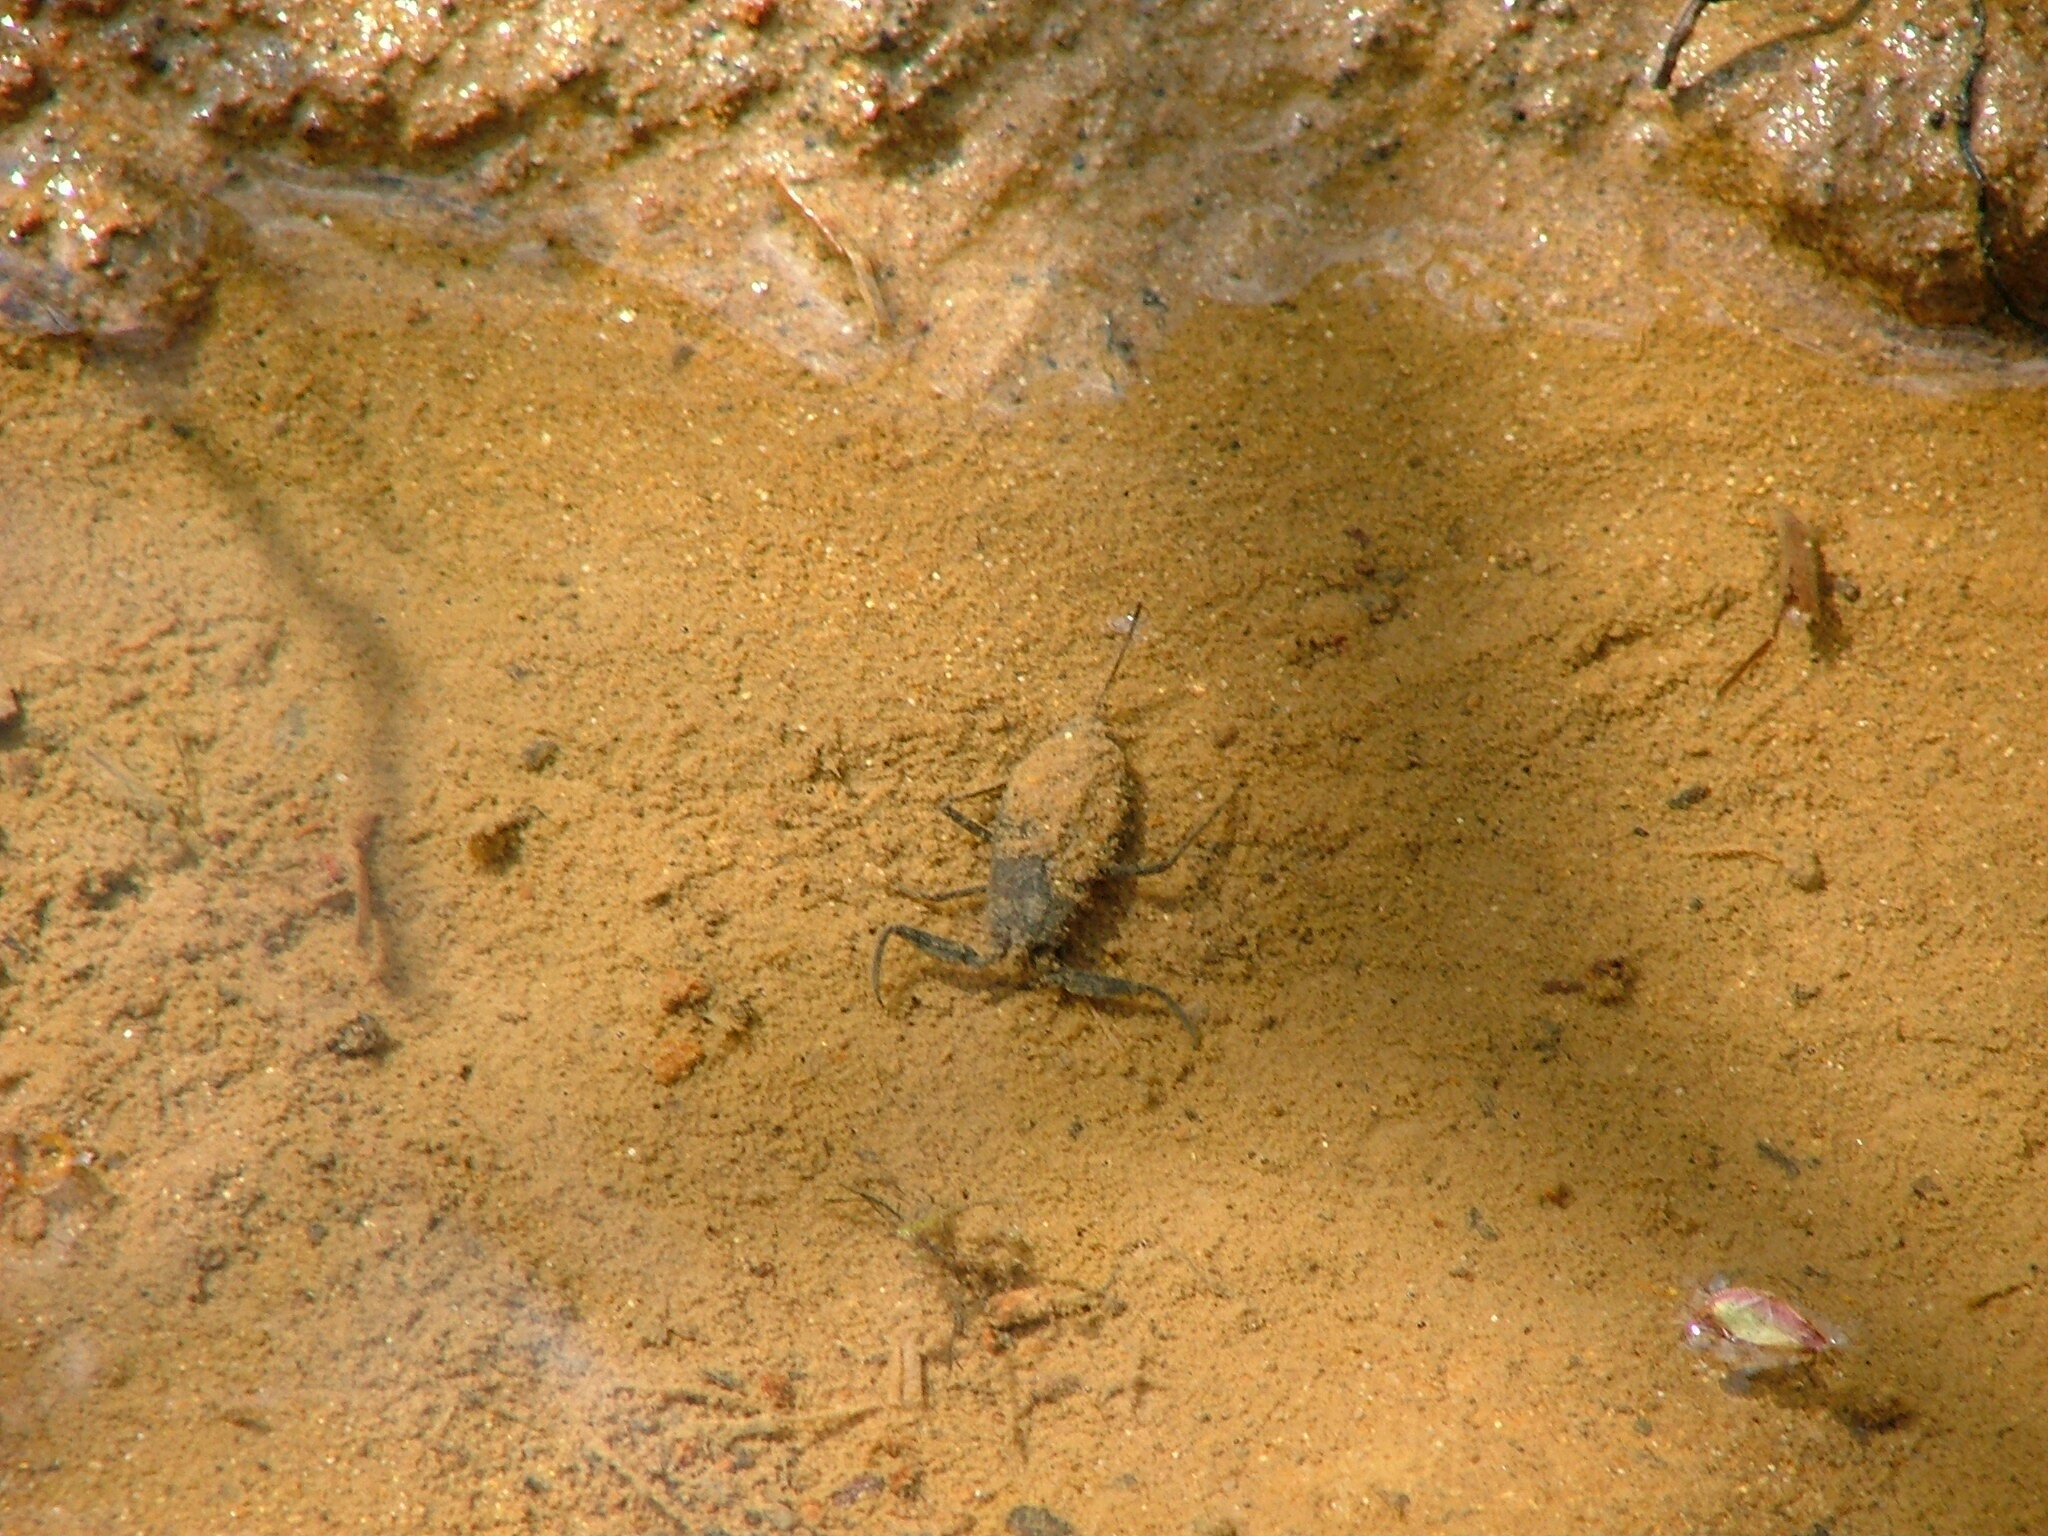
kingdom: Animalia
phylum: Arthropoda
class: Insecta
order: Hemiptera
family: Nepidae
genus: Nepa
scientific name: Nepa cinerea
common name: Water scorpion
